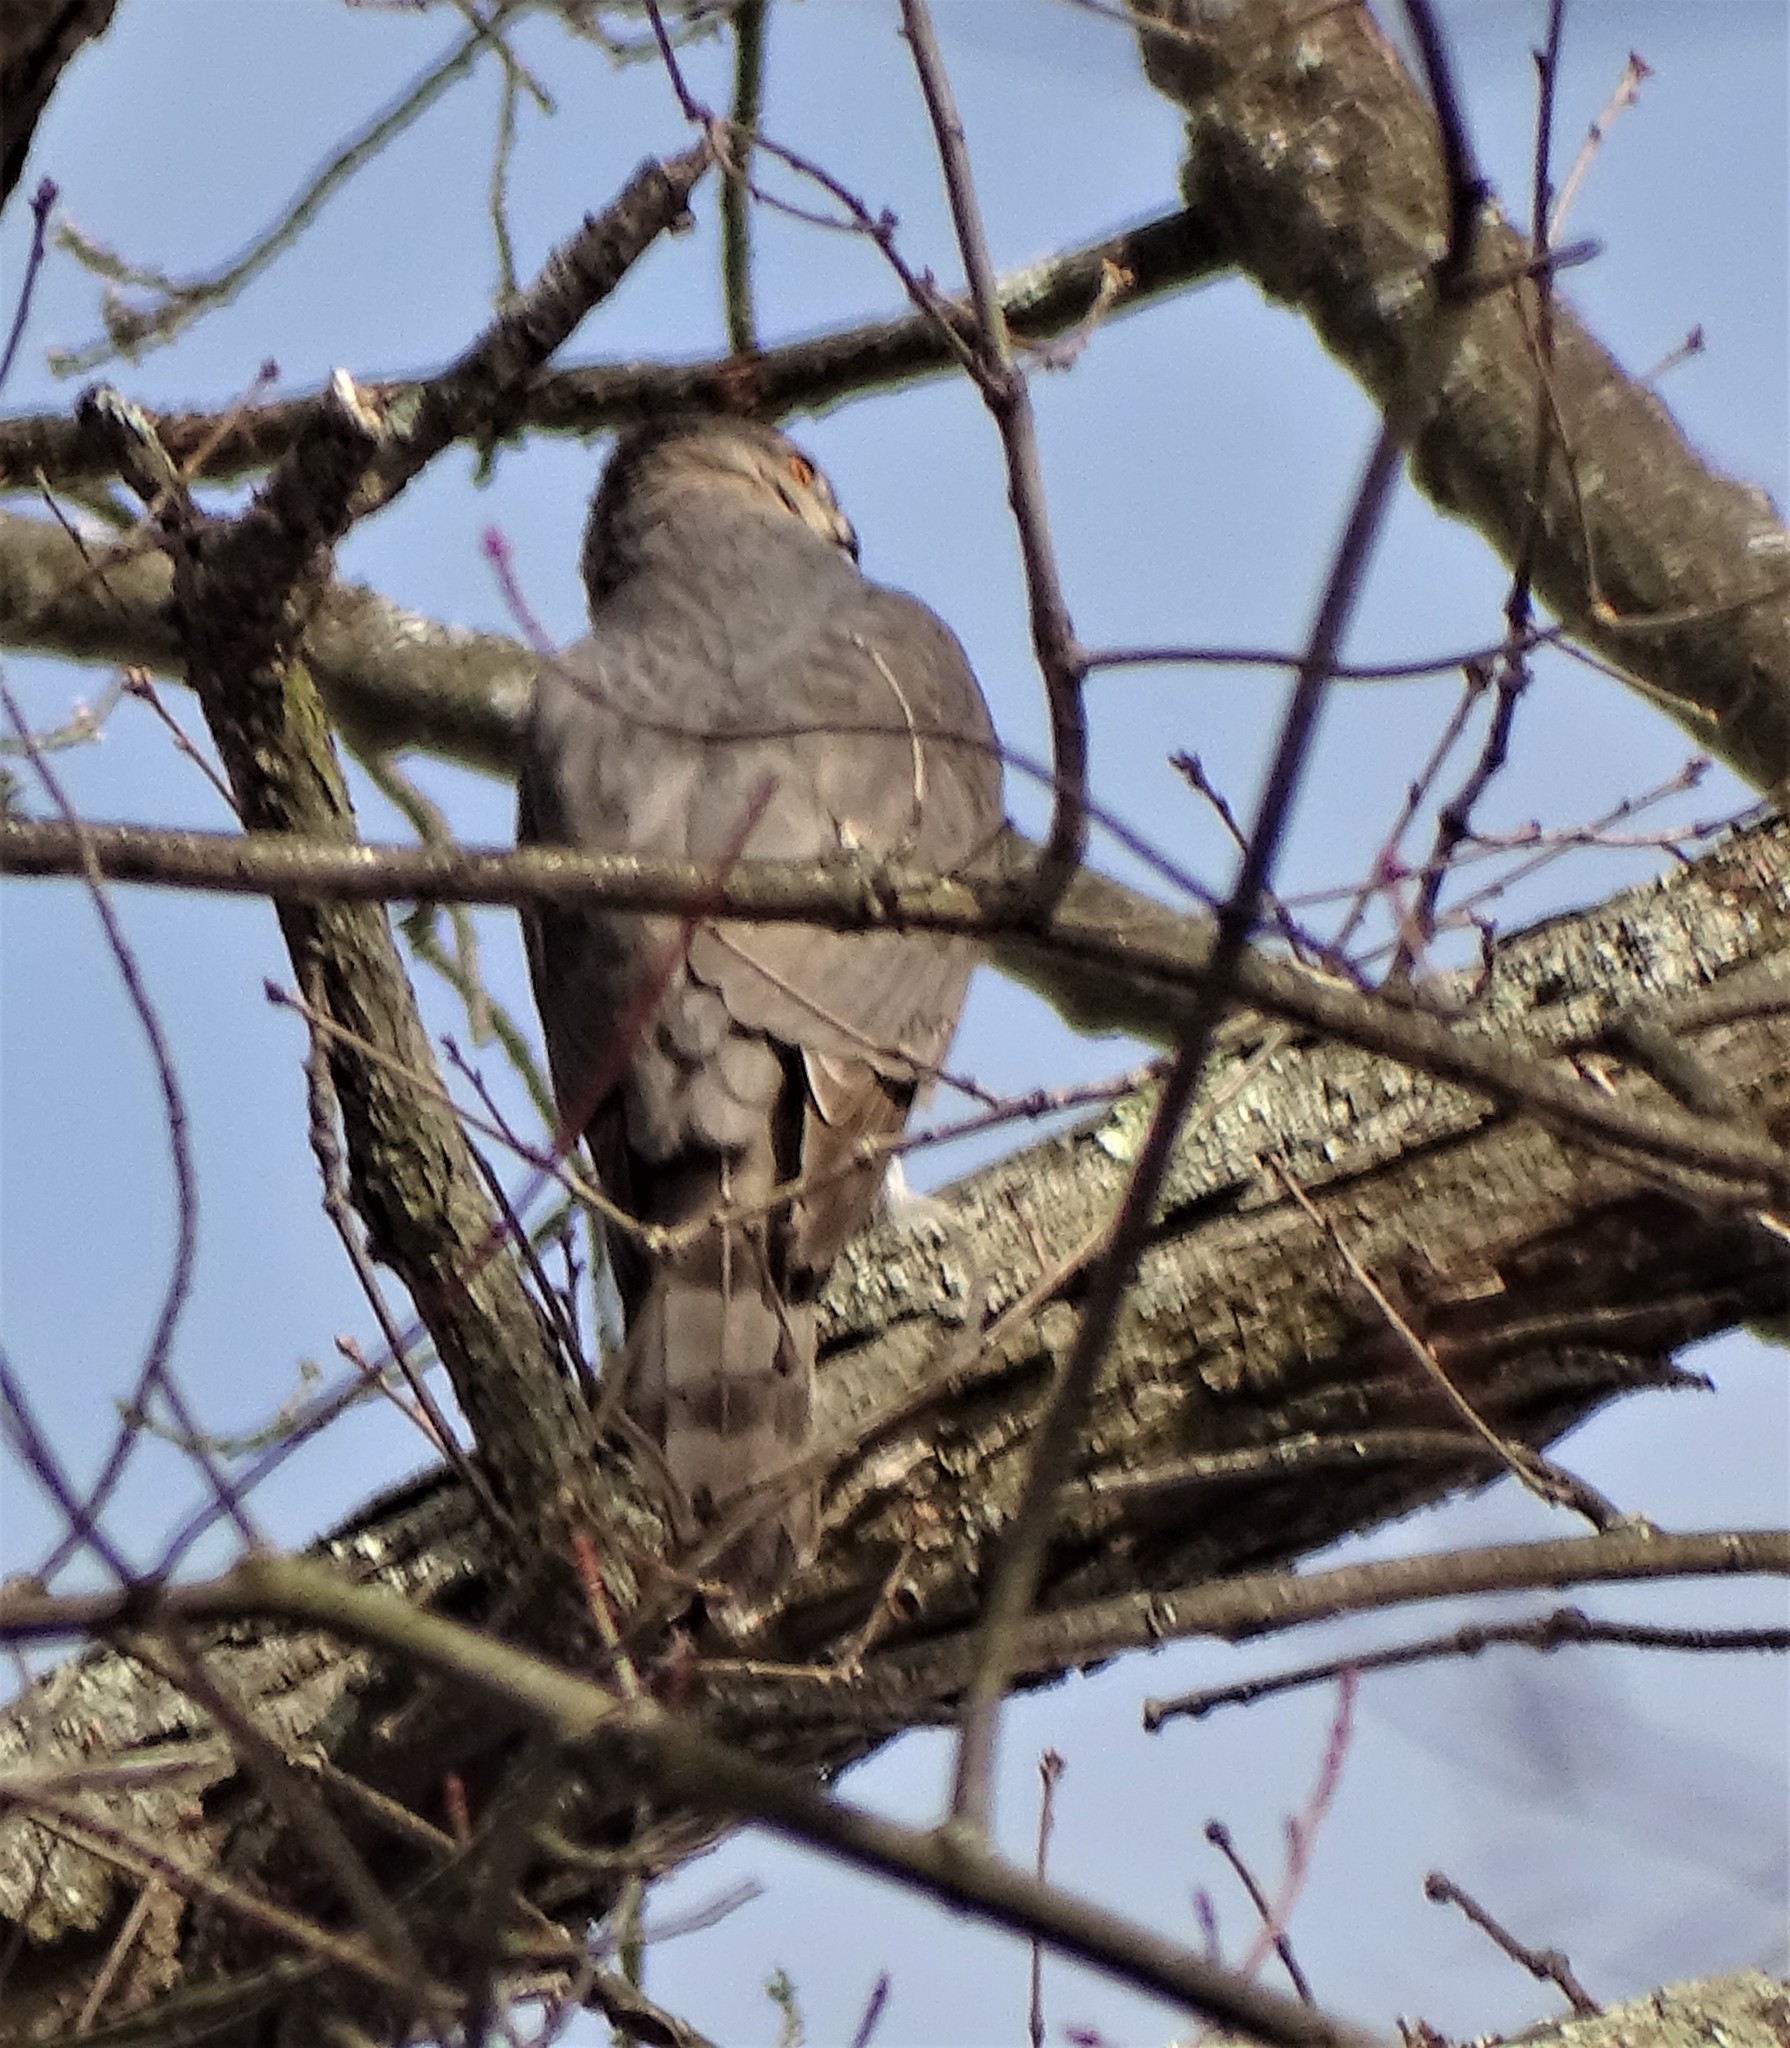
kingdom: Animalia
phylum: Chordata
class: Aves
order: Accipitriformes
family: Accipitridae
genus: Accipiter
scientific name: Accipiter cooperii
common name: Cooper's hawk
